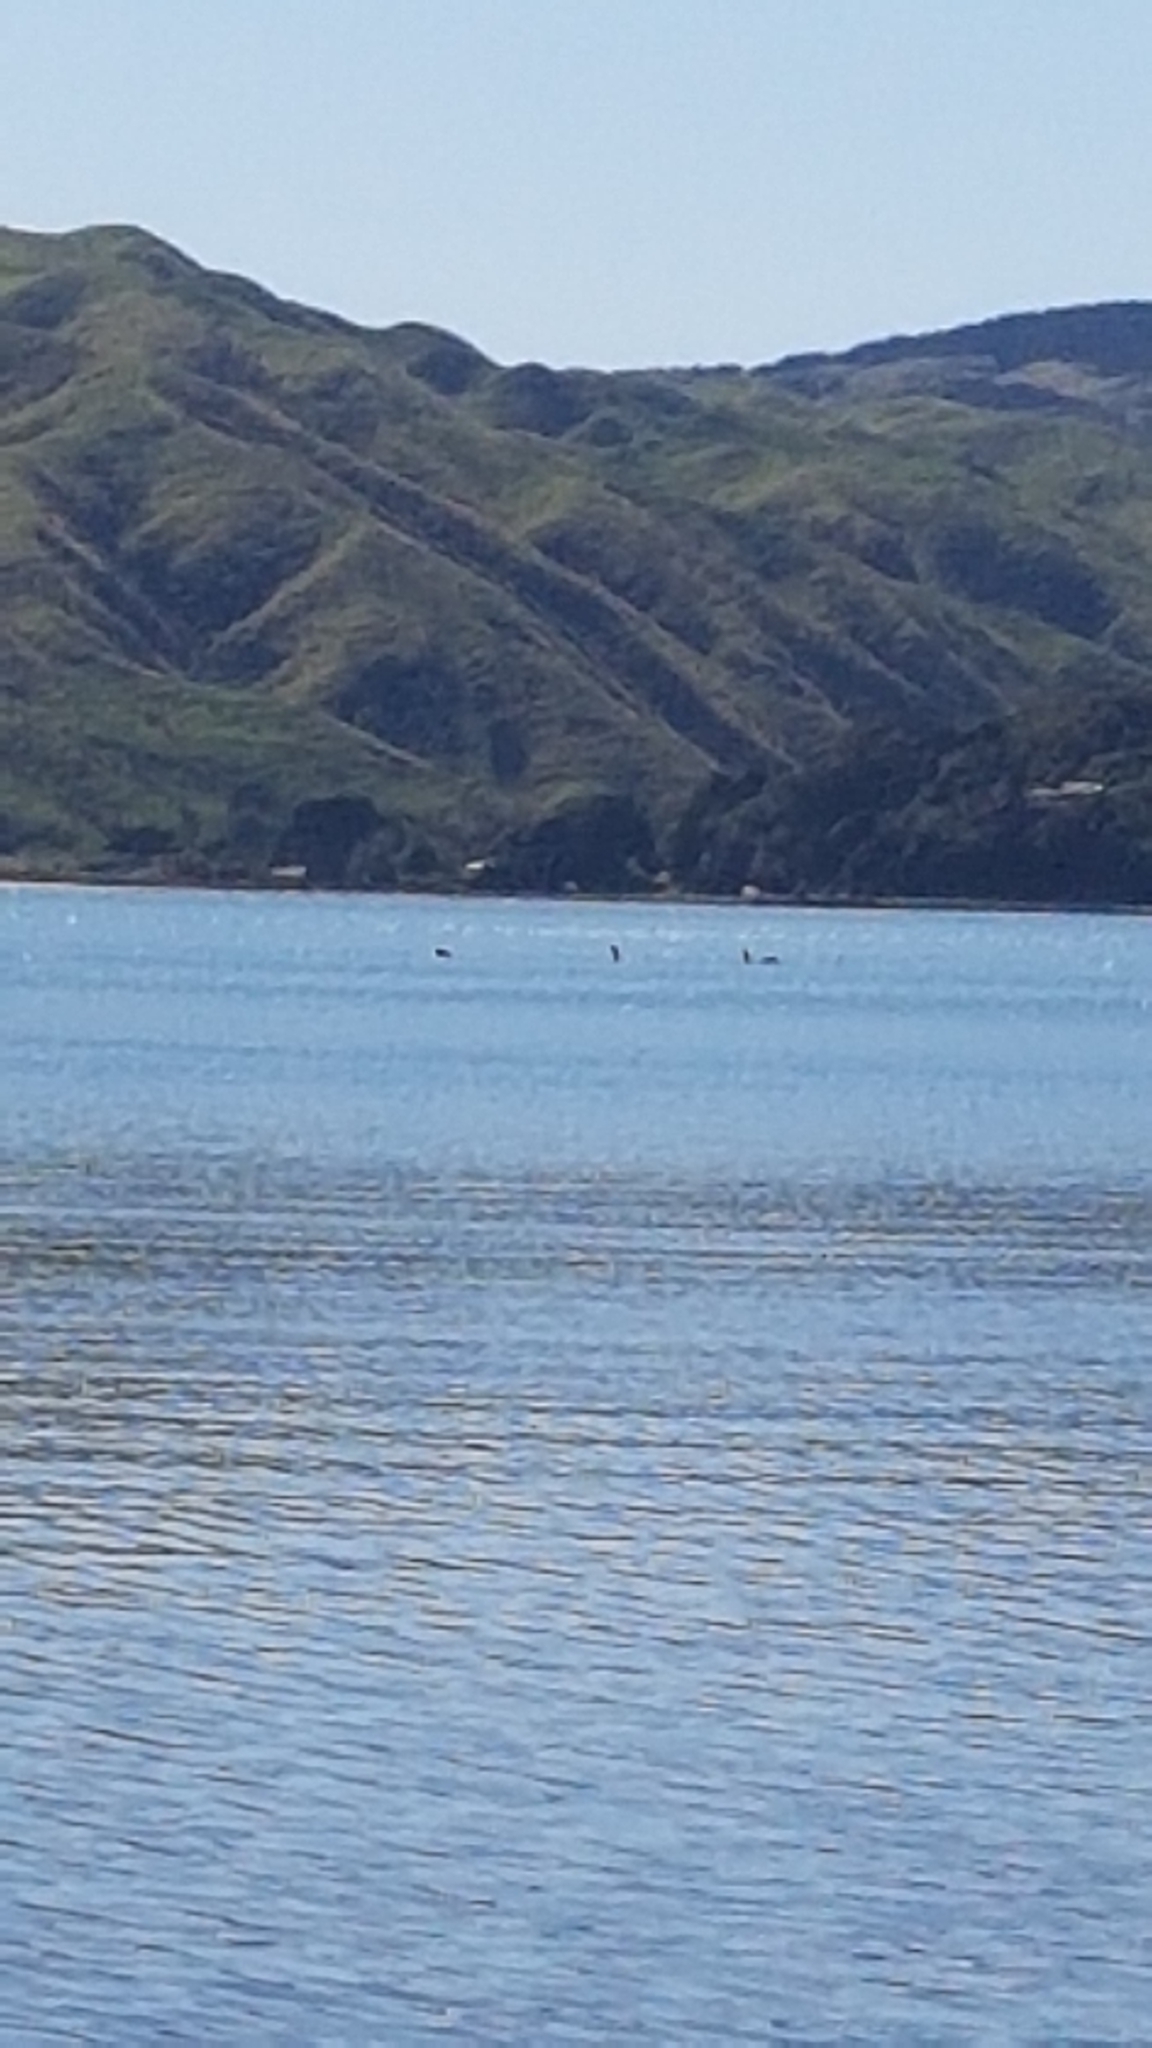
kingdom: Animalia
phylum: Chordata
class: Mammalia
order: Cetacea
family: Delphinidae
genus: Orcinus
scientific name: Orcinus orca
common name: Killer whale
